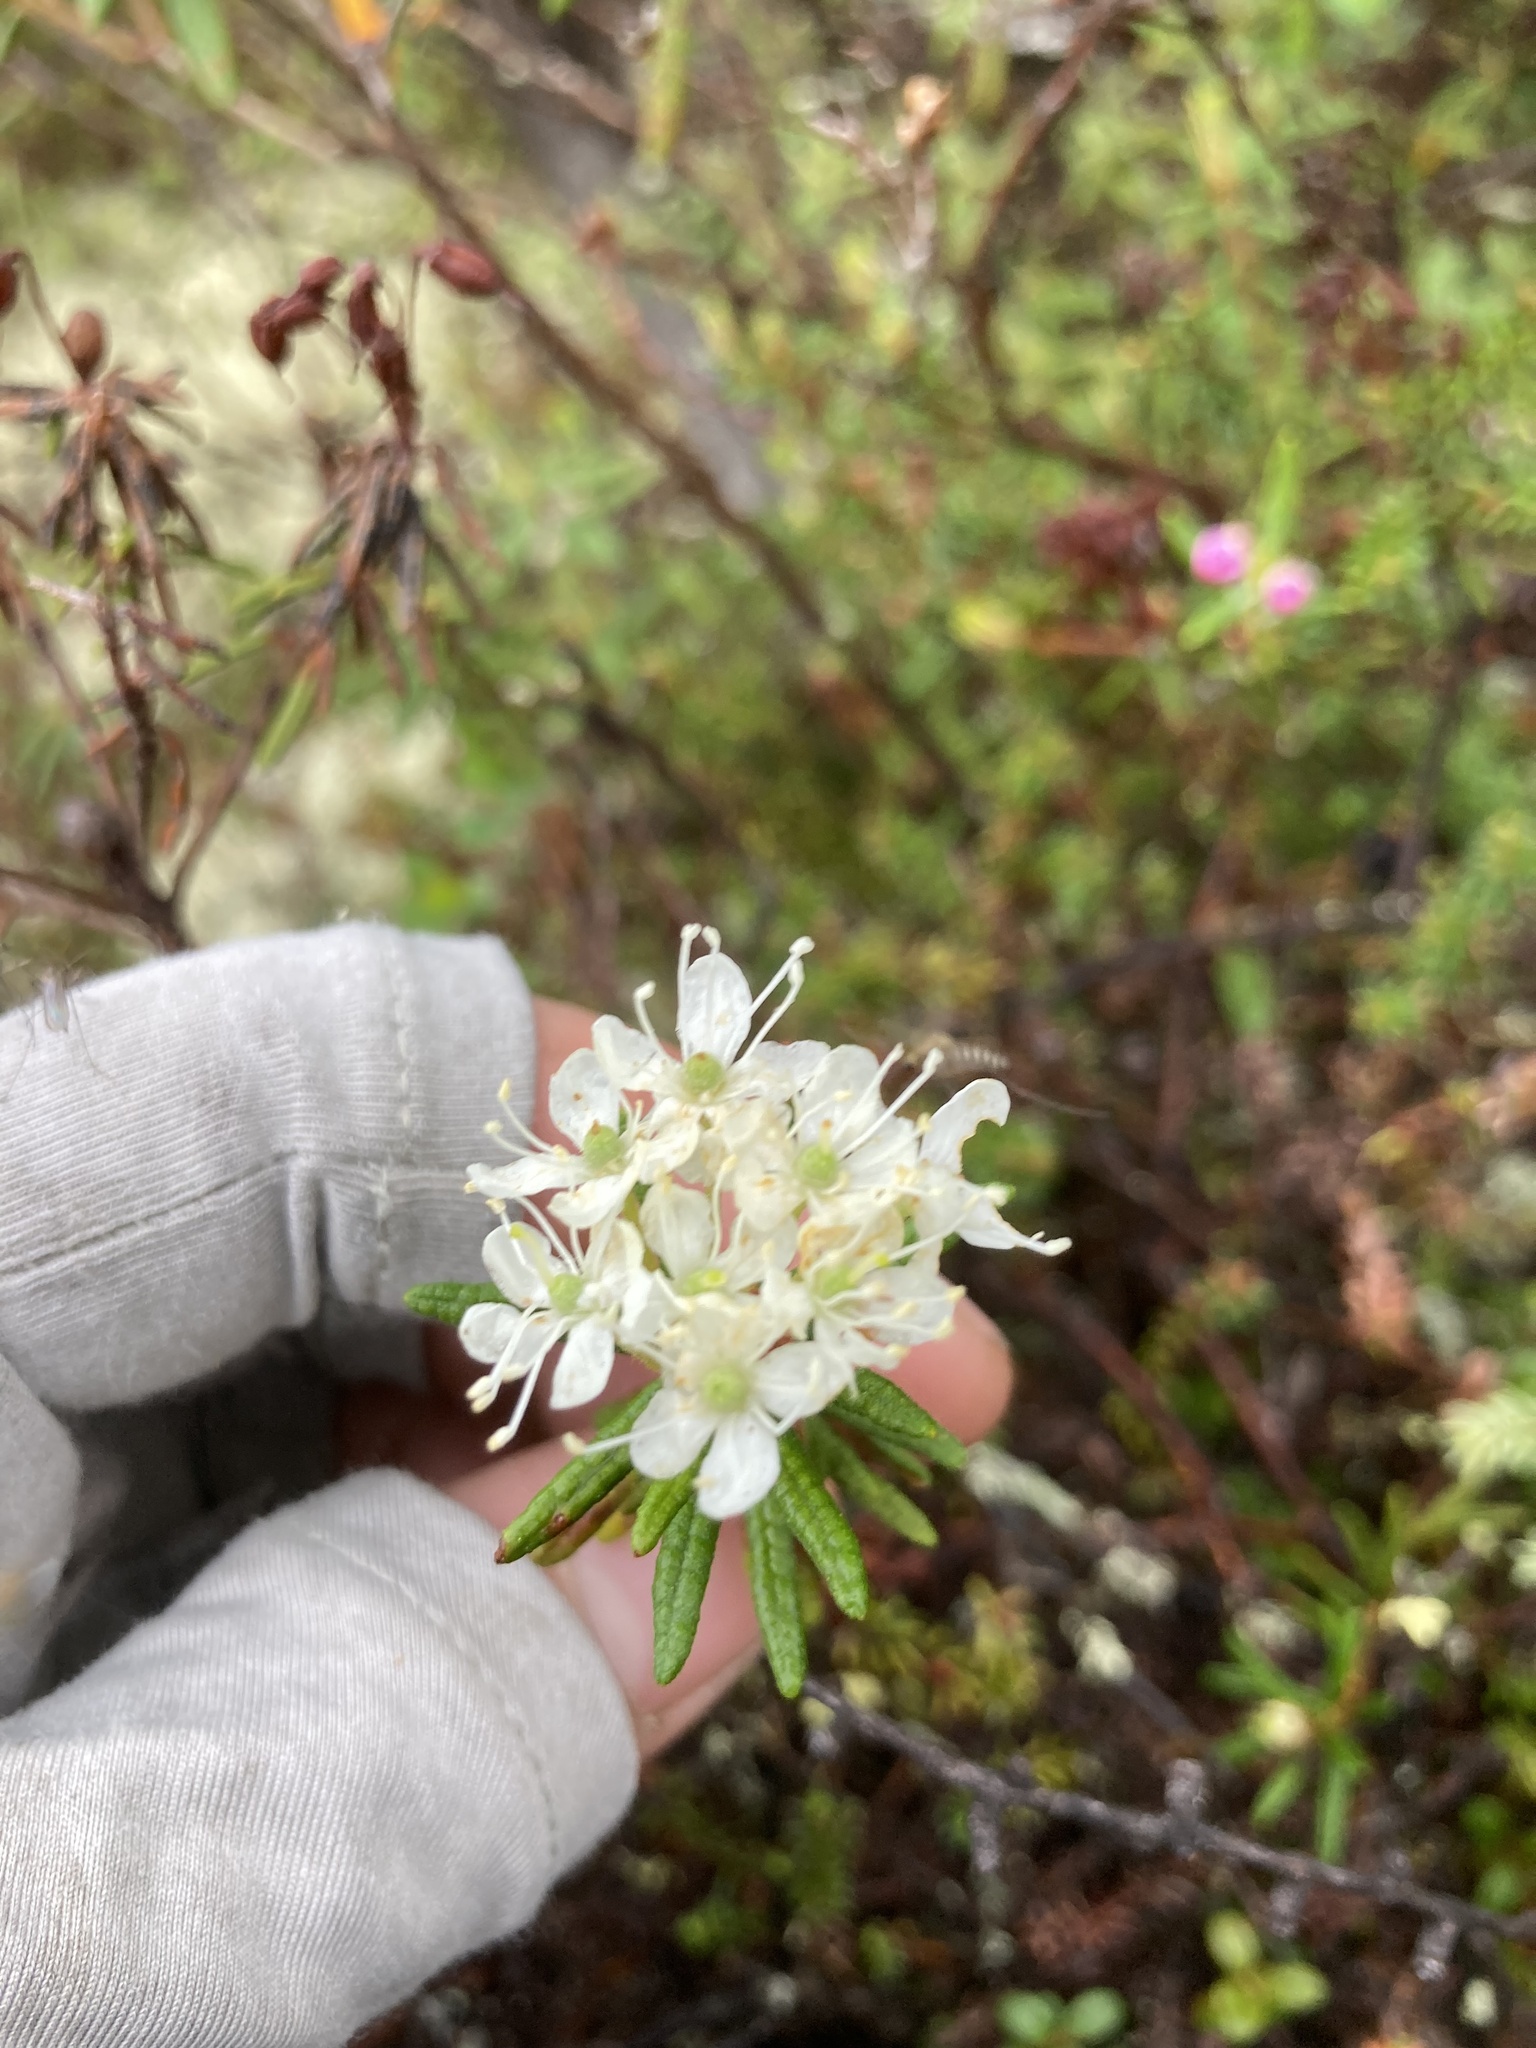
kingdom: Plantae
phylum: Tracheophyta
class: Magnoliopsida
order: Ericales
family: Ericaceae
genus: Rhododendron
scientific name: Rhododendron tomentosum
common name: Marsh labrador tea
